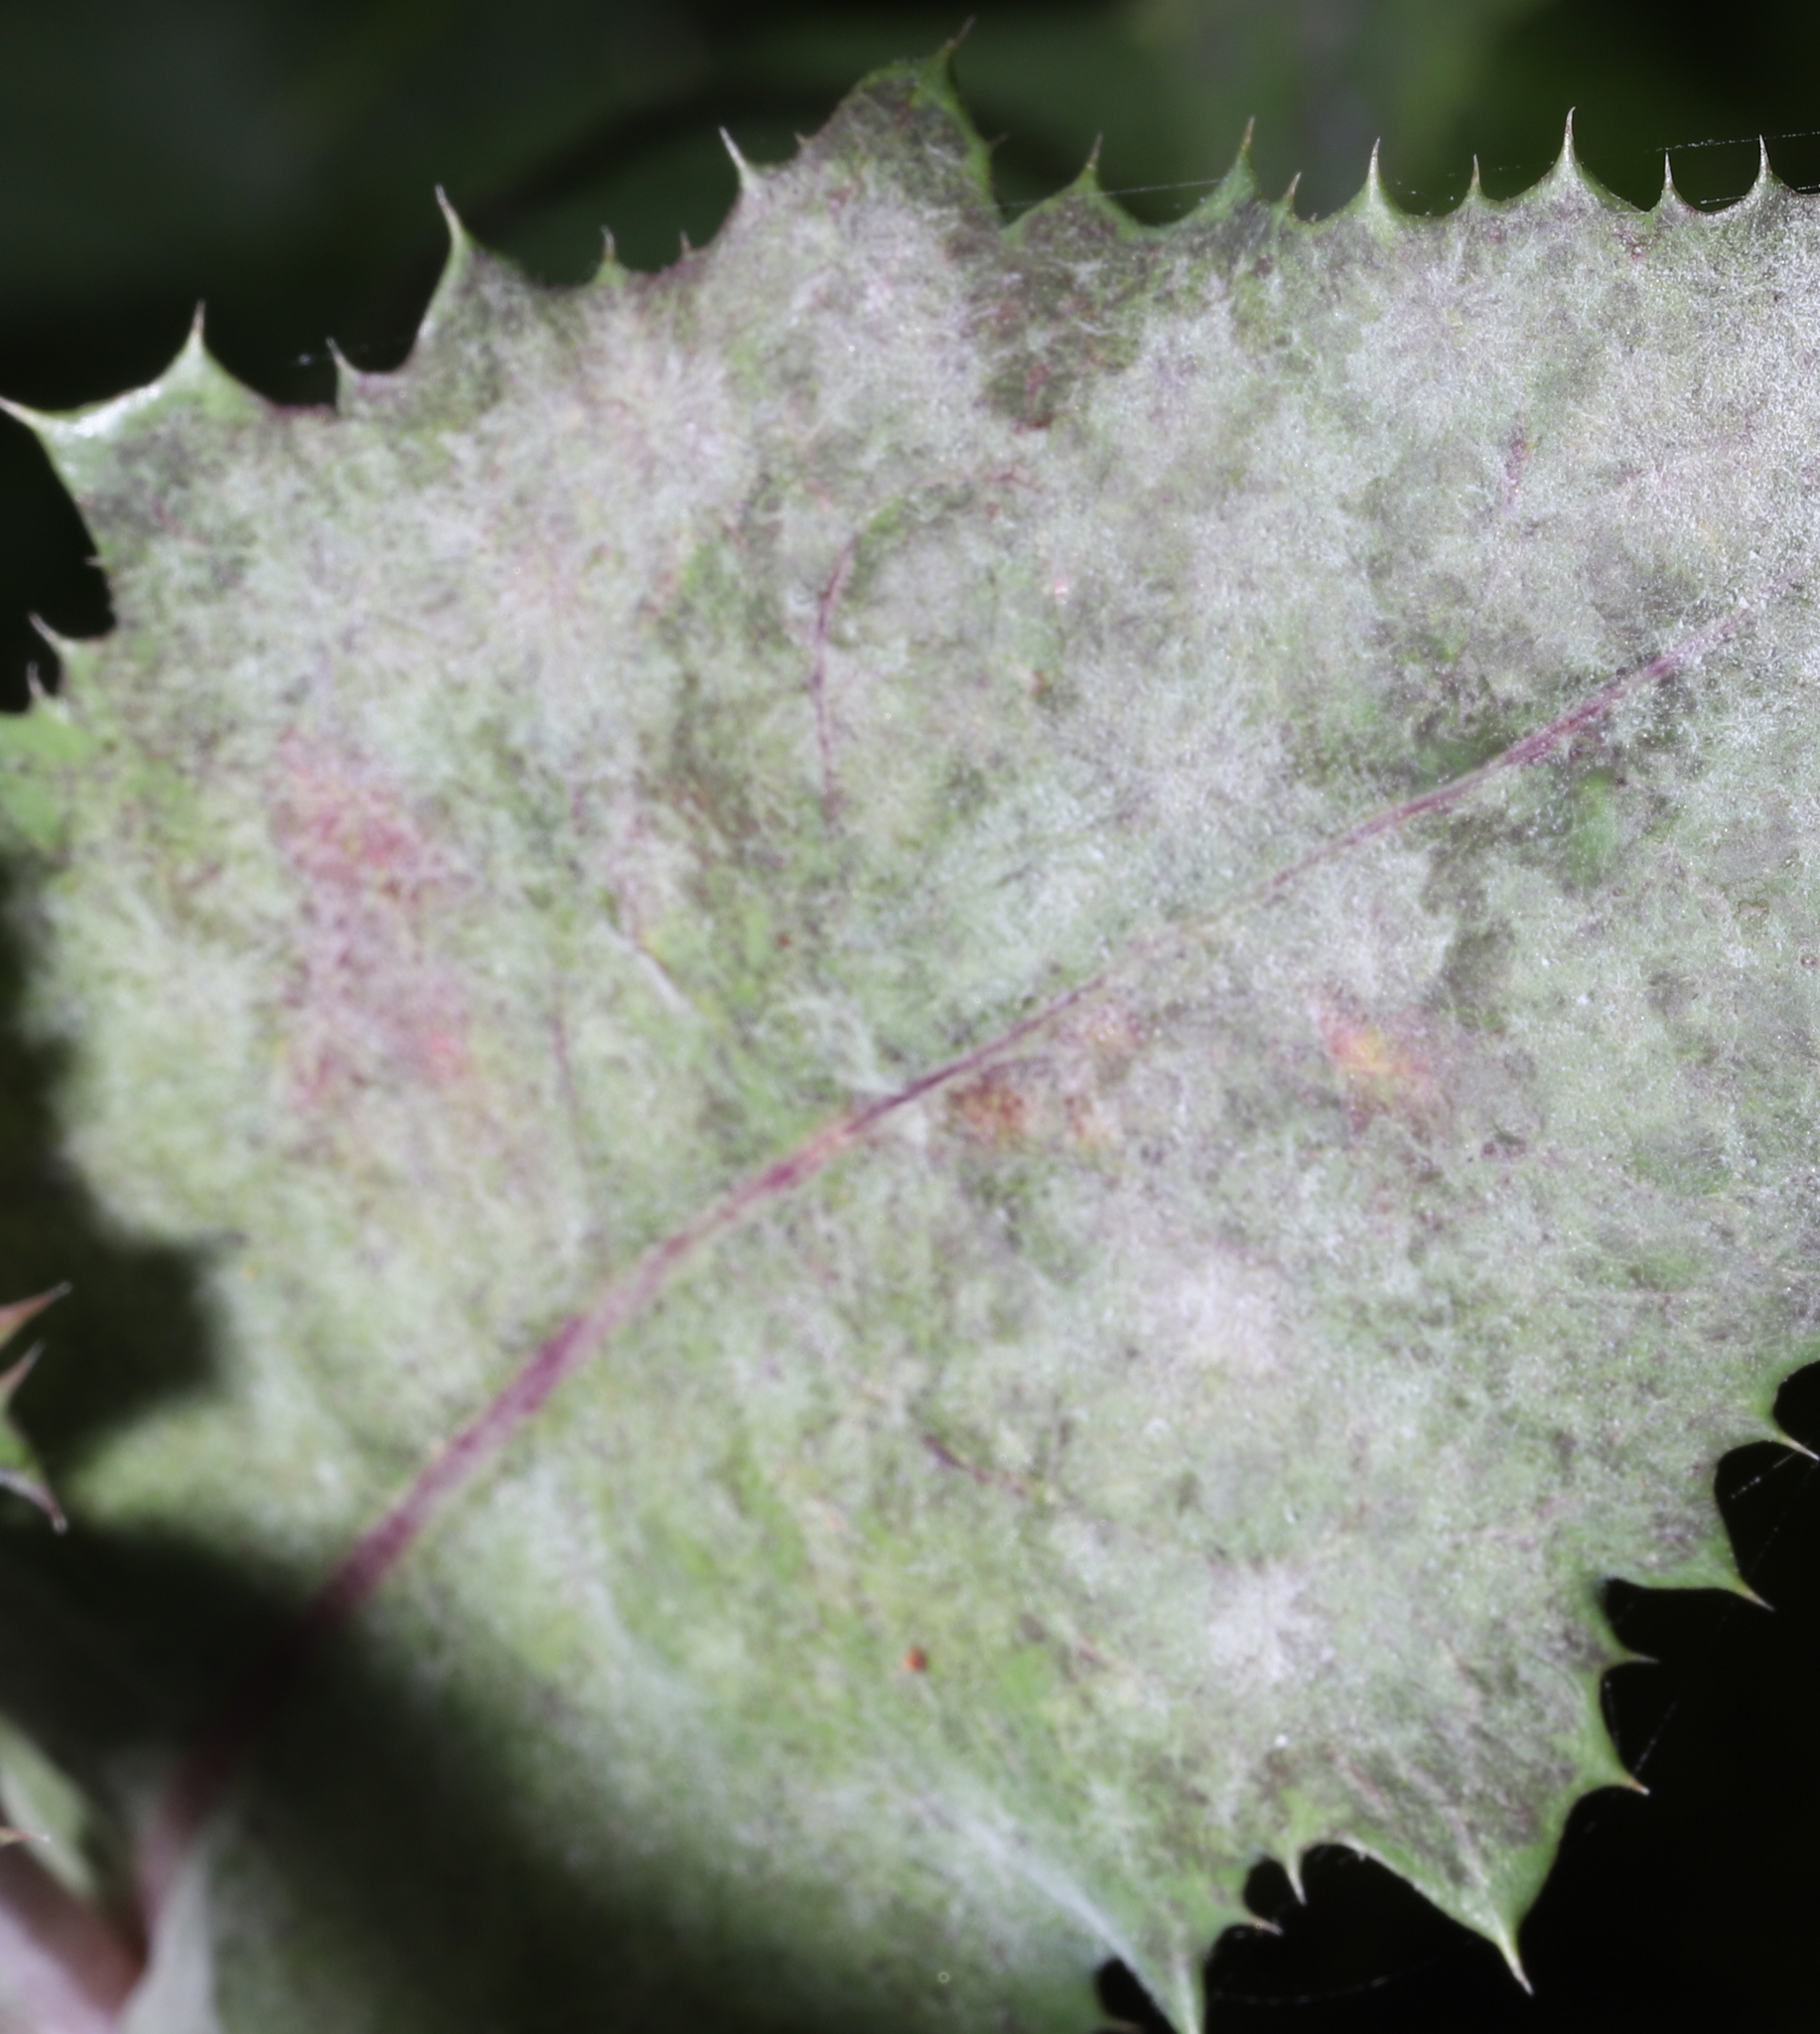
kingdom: Fungi
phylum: Ascomycota
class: Leotiomycetes
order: Helotiales
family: Erysiphaceae
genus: Golovinomyces
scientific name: Golovinomyces sonchicola
